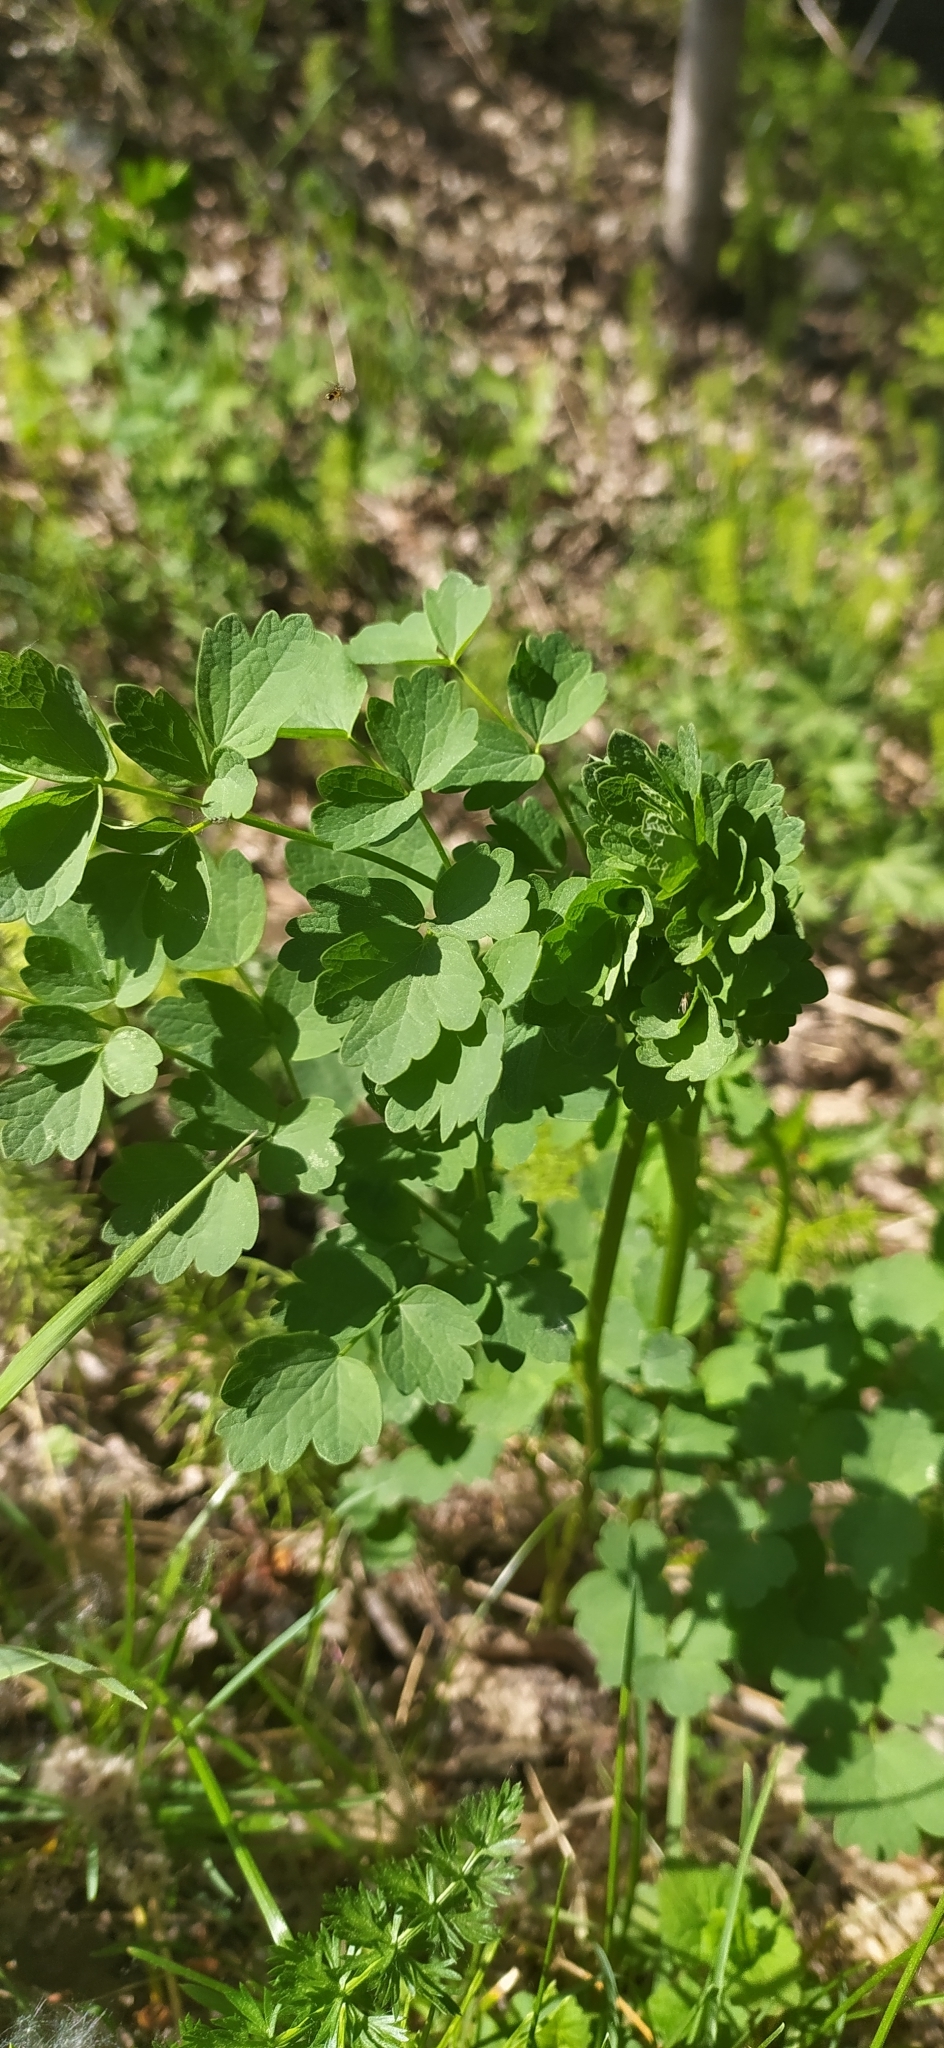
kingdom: Plantae
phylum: Tracheophyta
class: Magnoliopsida
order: Ranunculales
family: Ranunculaceae
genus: Thalictrum
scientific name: Thalictrum minus
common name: Lesser meadow-rue
